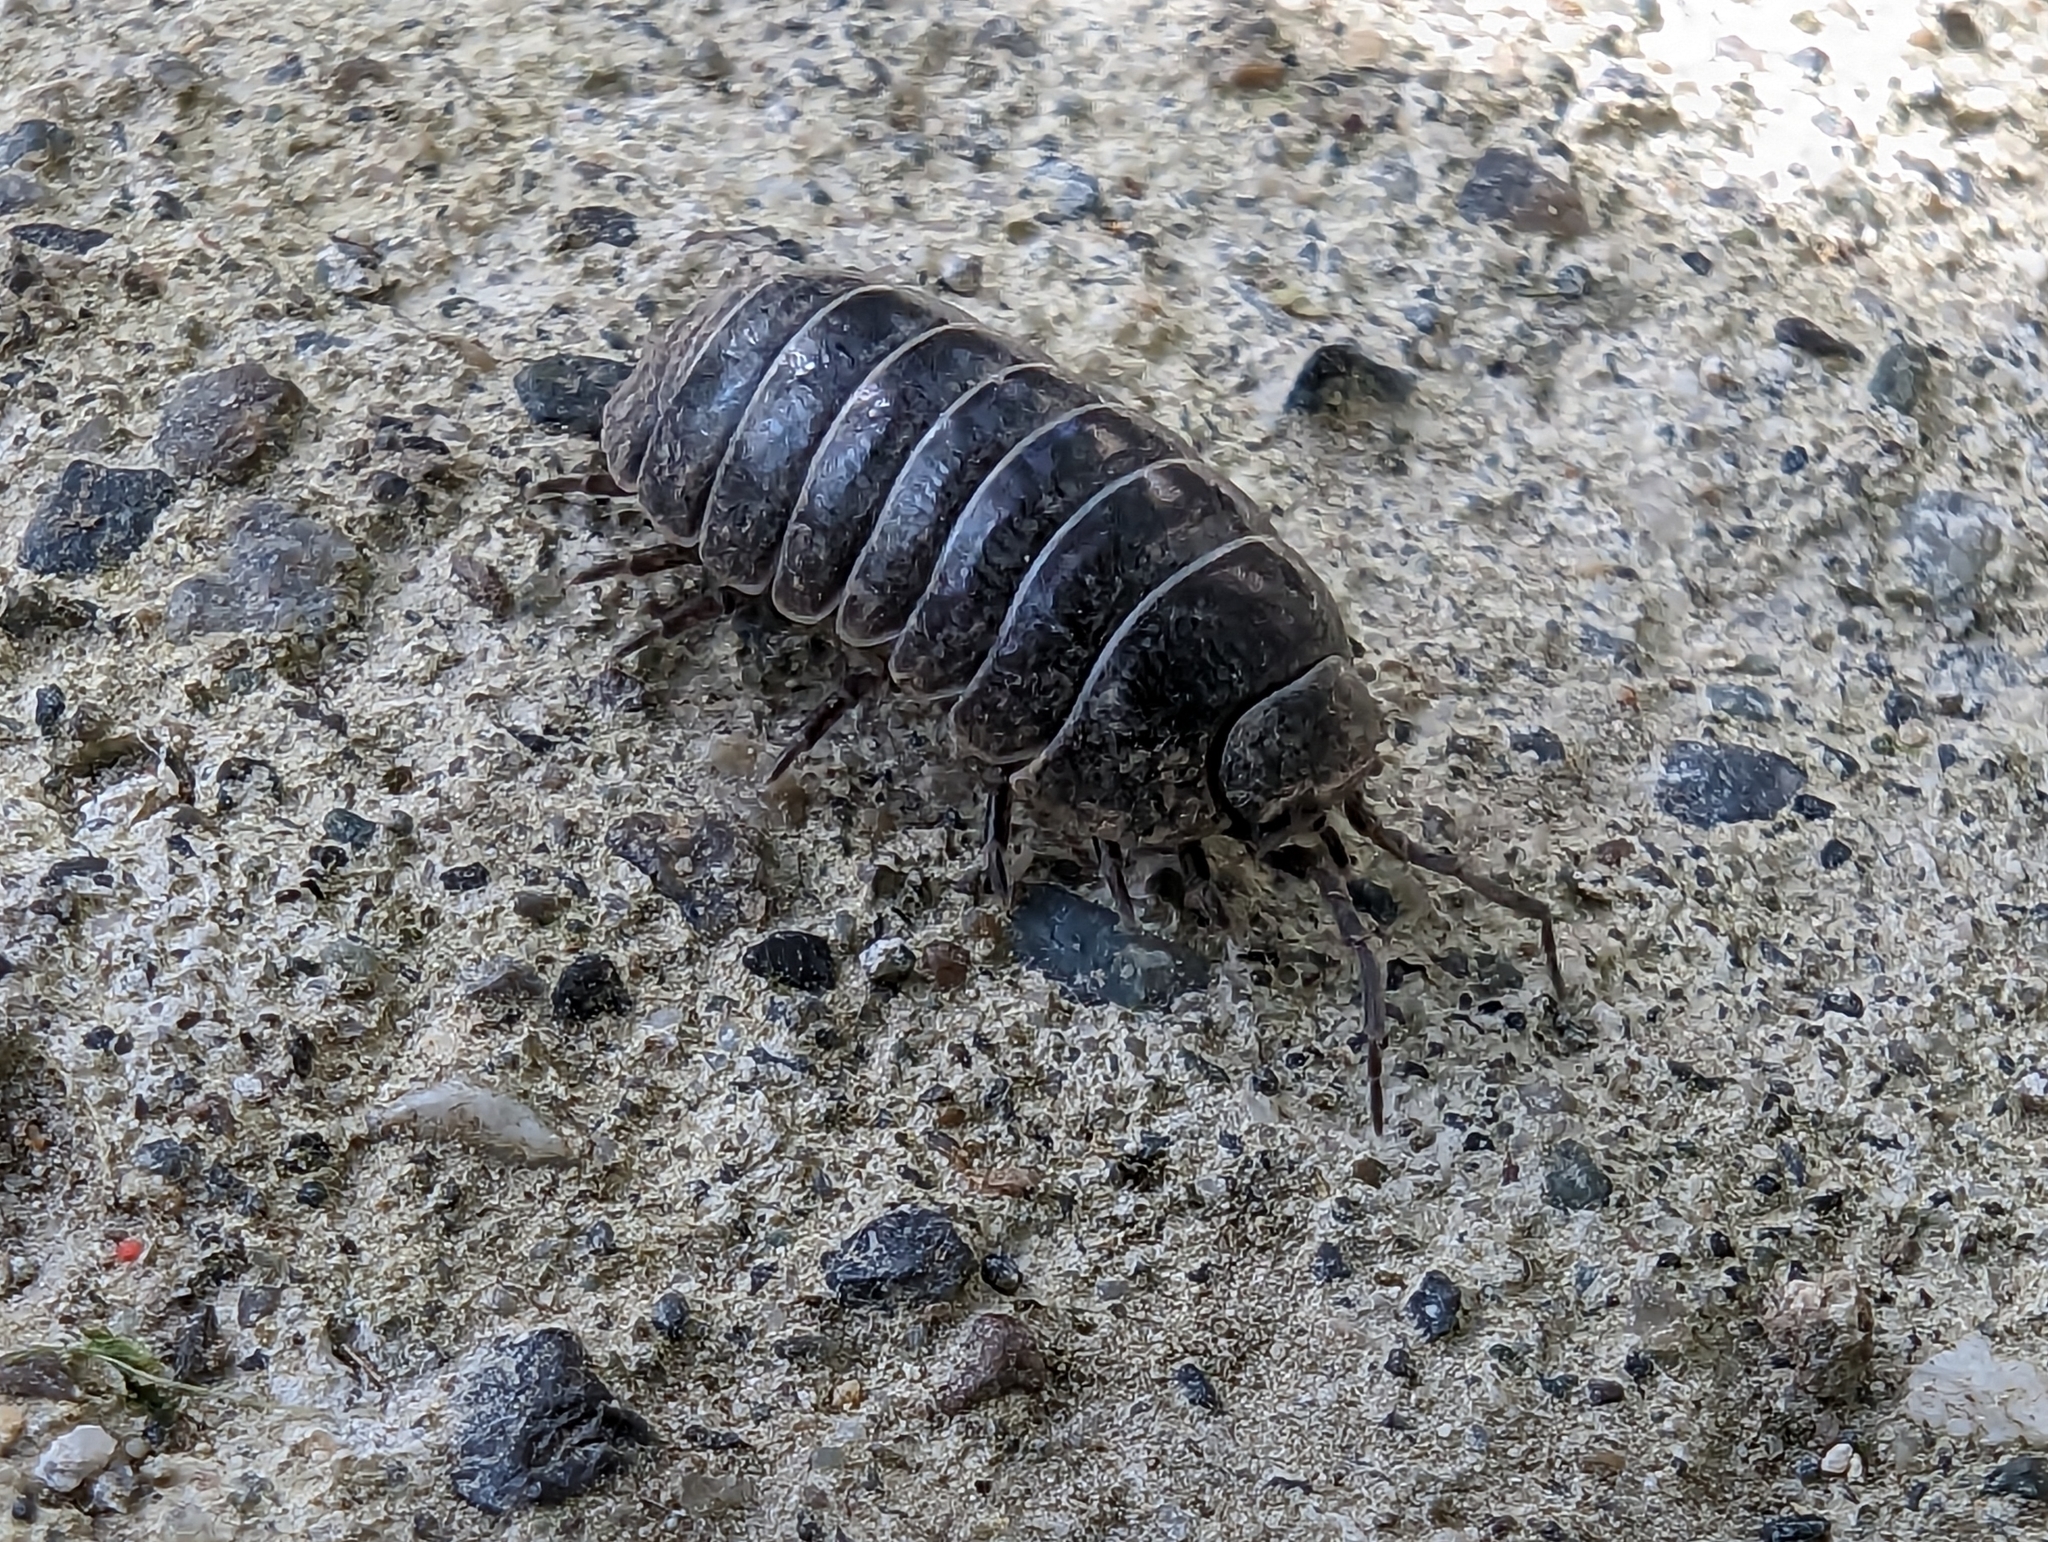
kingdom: Animalia
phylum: Arthropoda
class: Malacostraca
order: Isopoda
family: Armadillidiidae
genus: Armadillidium
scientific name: Armadillidium vulgare
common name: Common pill woodlouse
